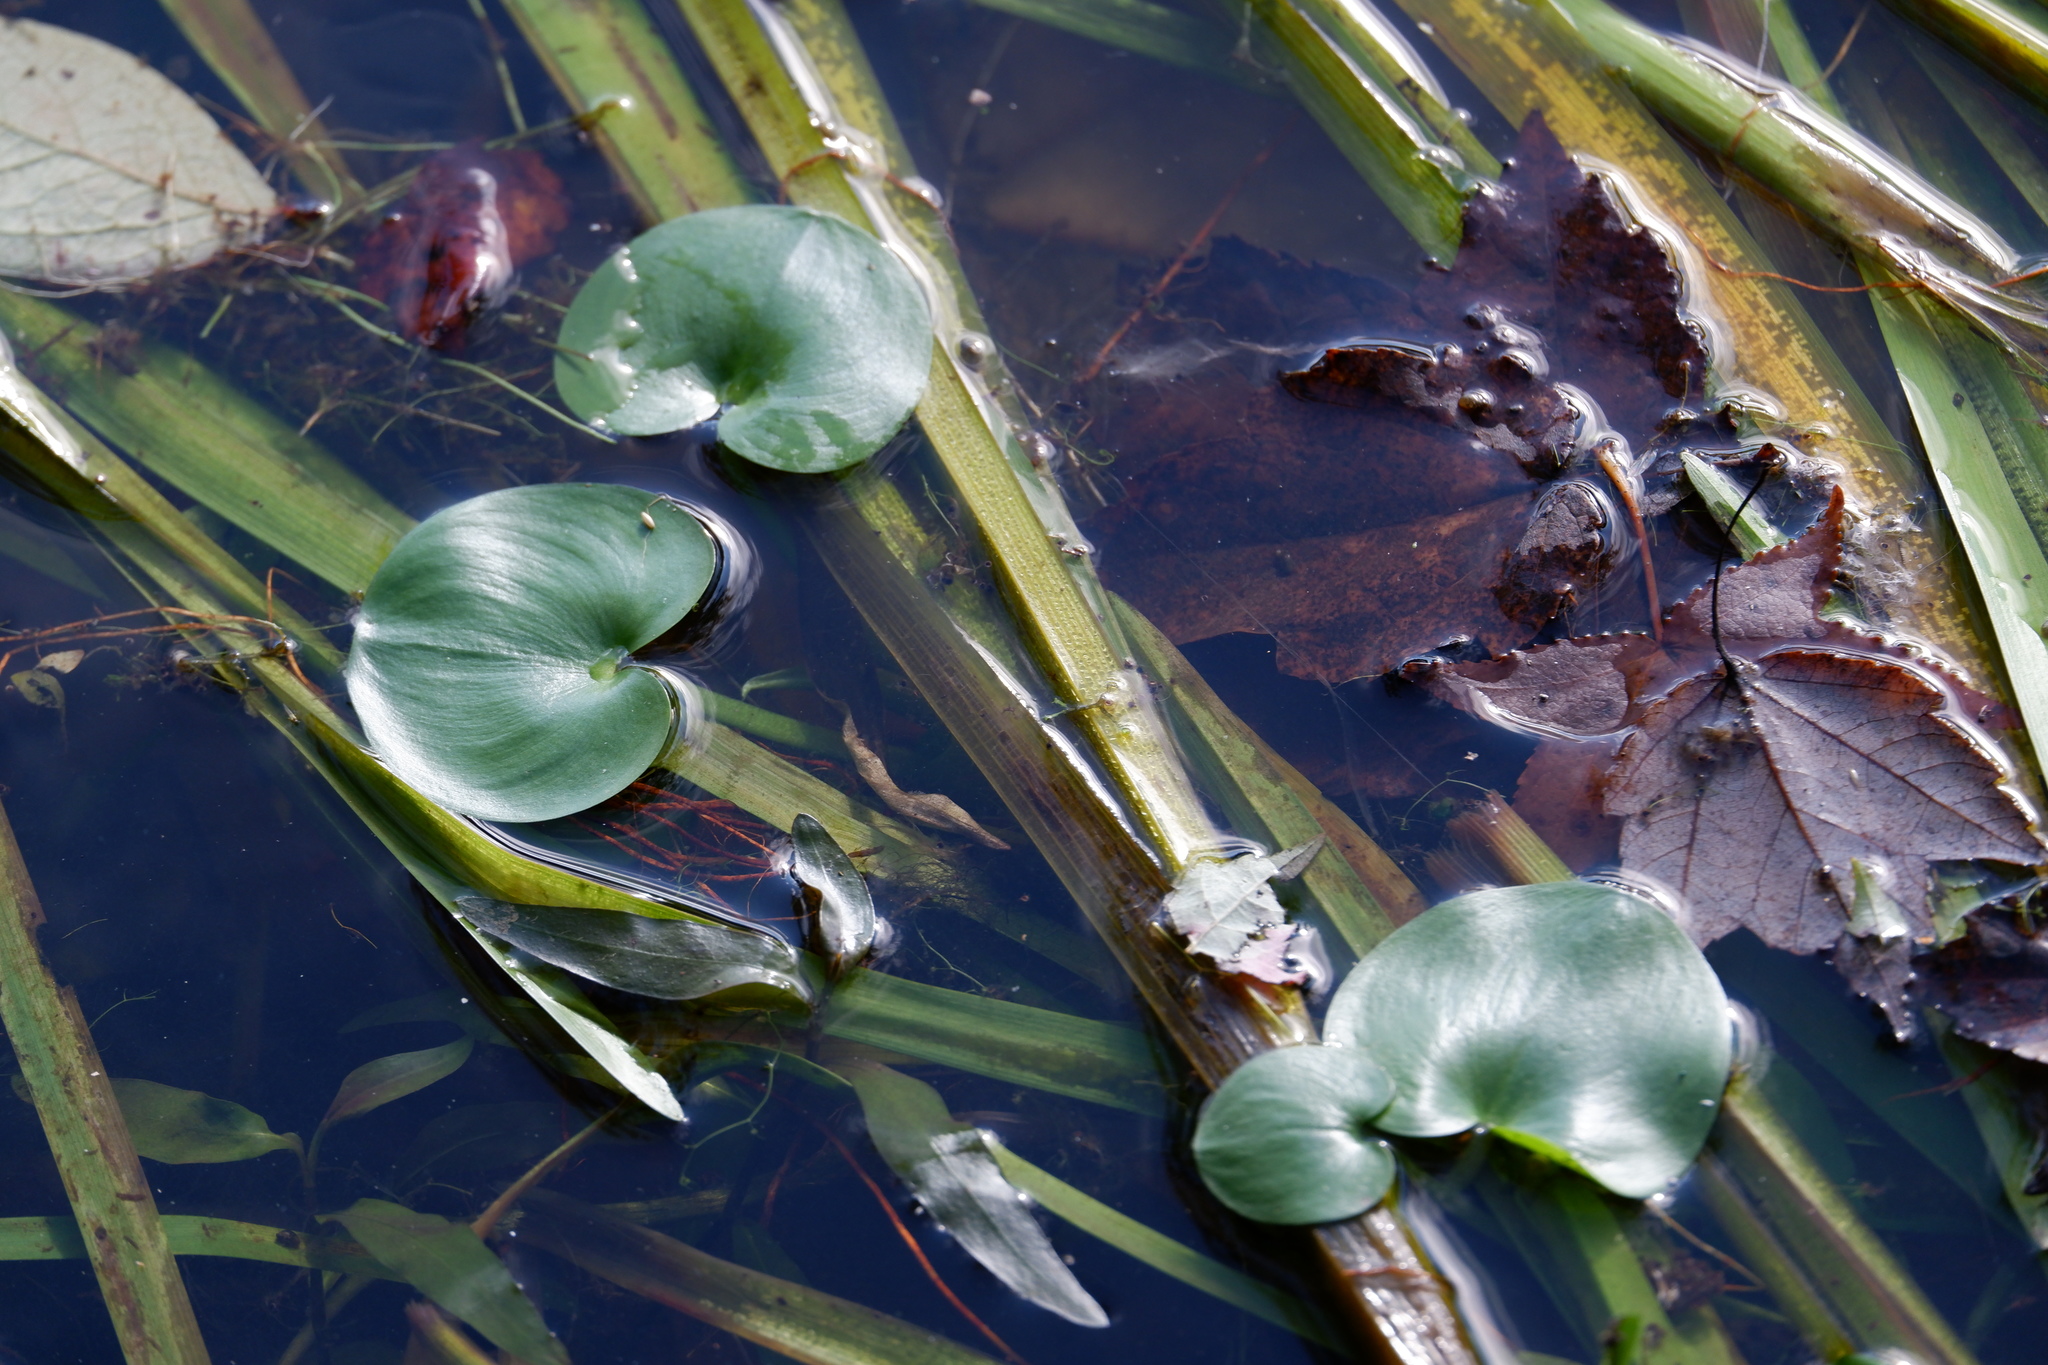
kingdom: Plantae
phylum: Tracheophyta
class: Liliopsida
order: Commelinales
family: Pontederiaceae
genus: Heteranthera
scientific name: Heteranthera reniformis
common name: Kidneyleaf mudplantain
